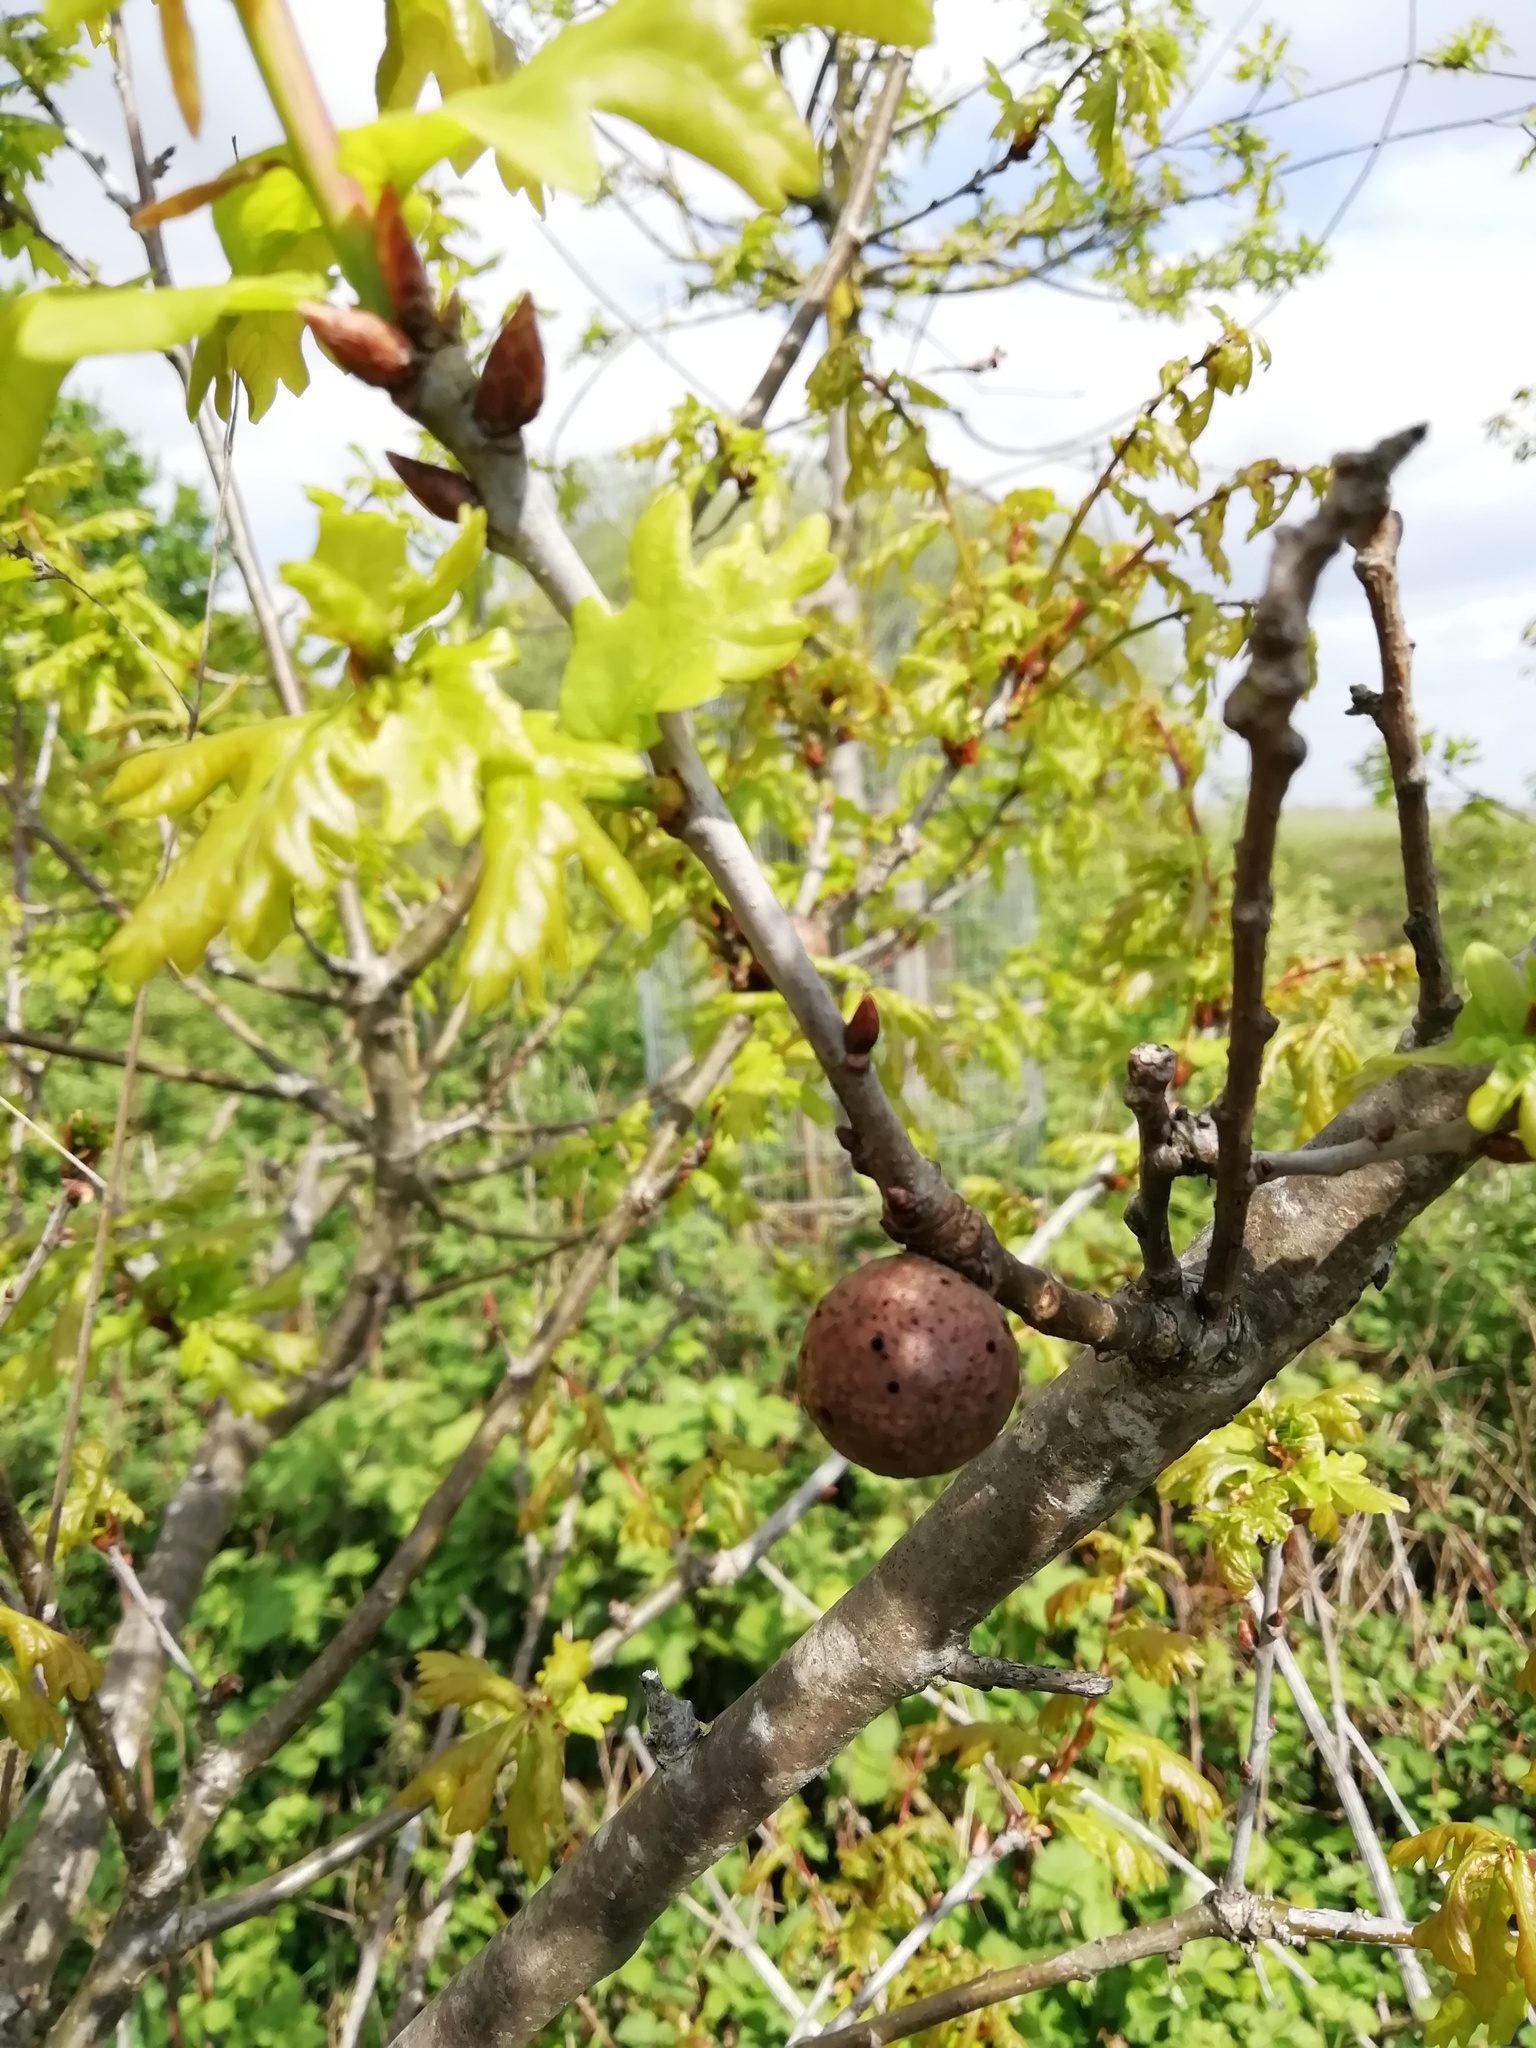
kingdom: Animalia
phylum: Arthropoda
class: Insecta
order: Hymenoptera
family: Cynipidae
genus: Andricus
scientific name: Andricus kollari
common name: Marble gall
